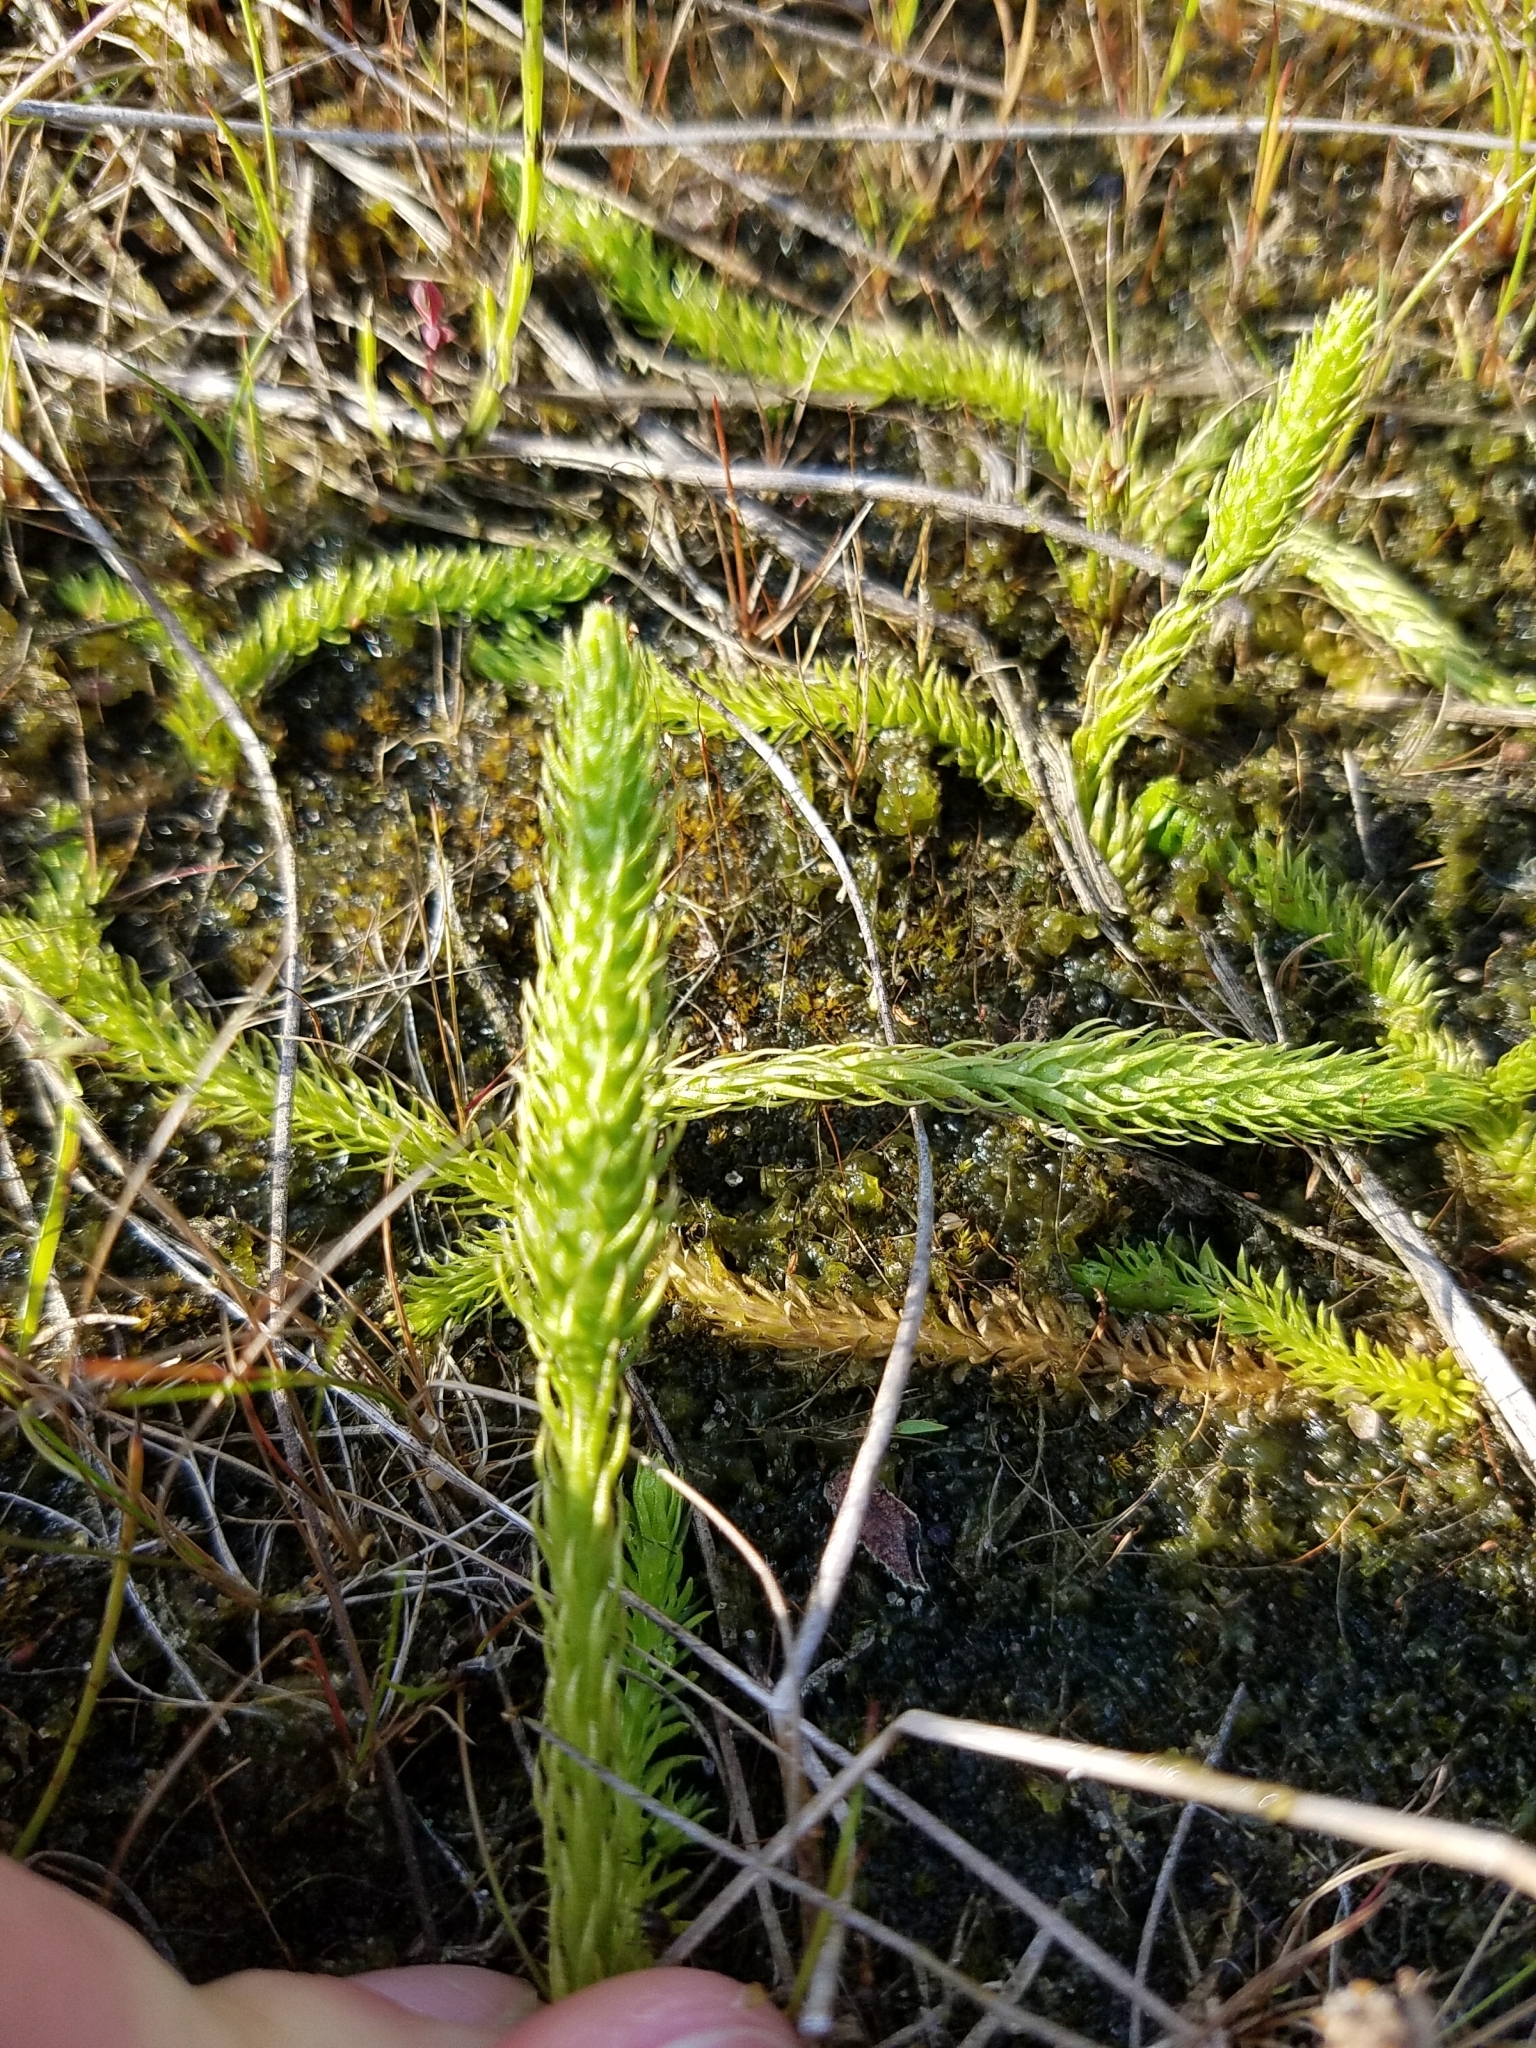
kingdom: Plantae
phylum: Tracheophyta
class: Lycopodiopsida
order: Lycopodiales
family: Lycopodiaceae
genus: Lycopodiella
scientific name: Lycopodiella inundata
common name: Marsh clubmoss
